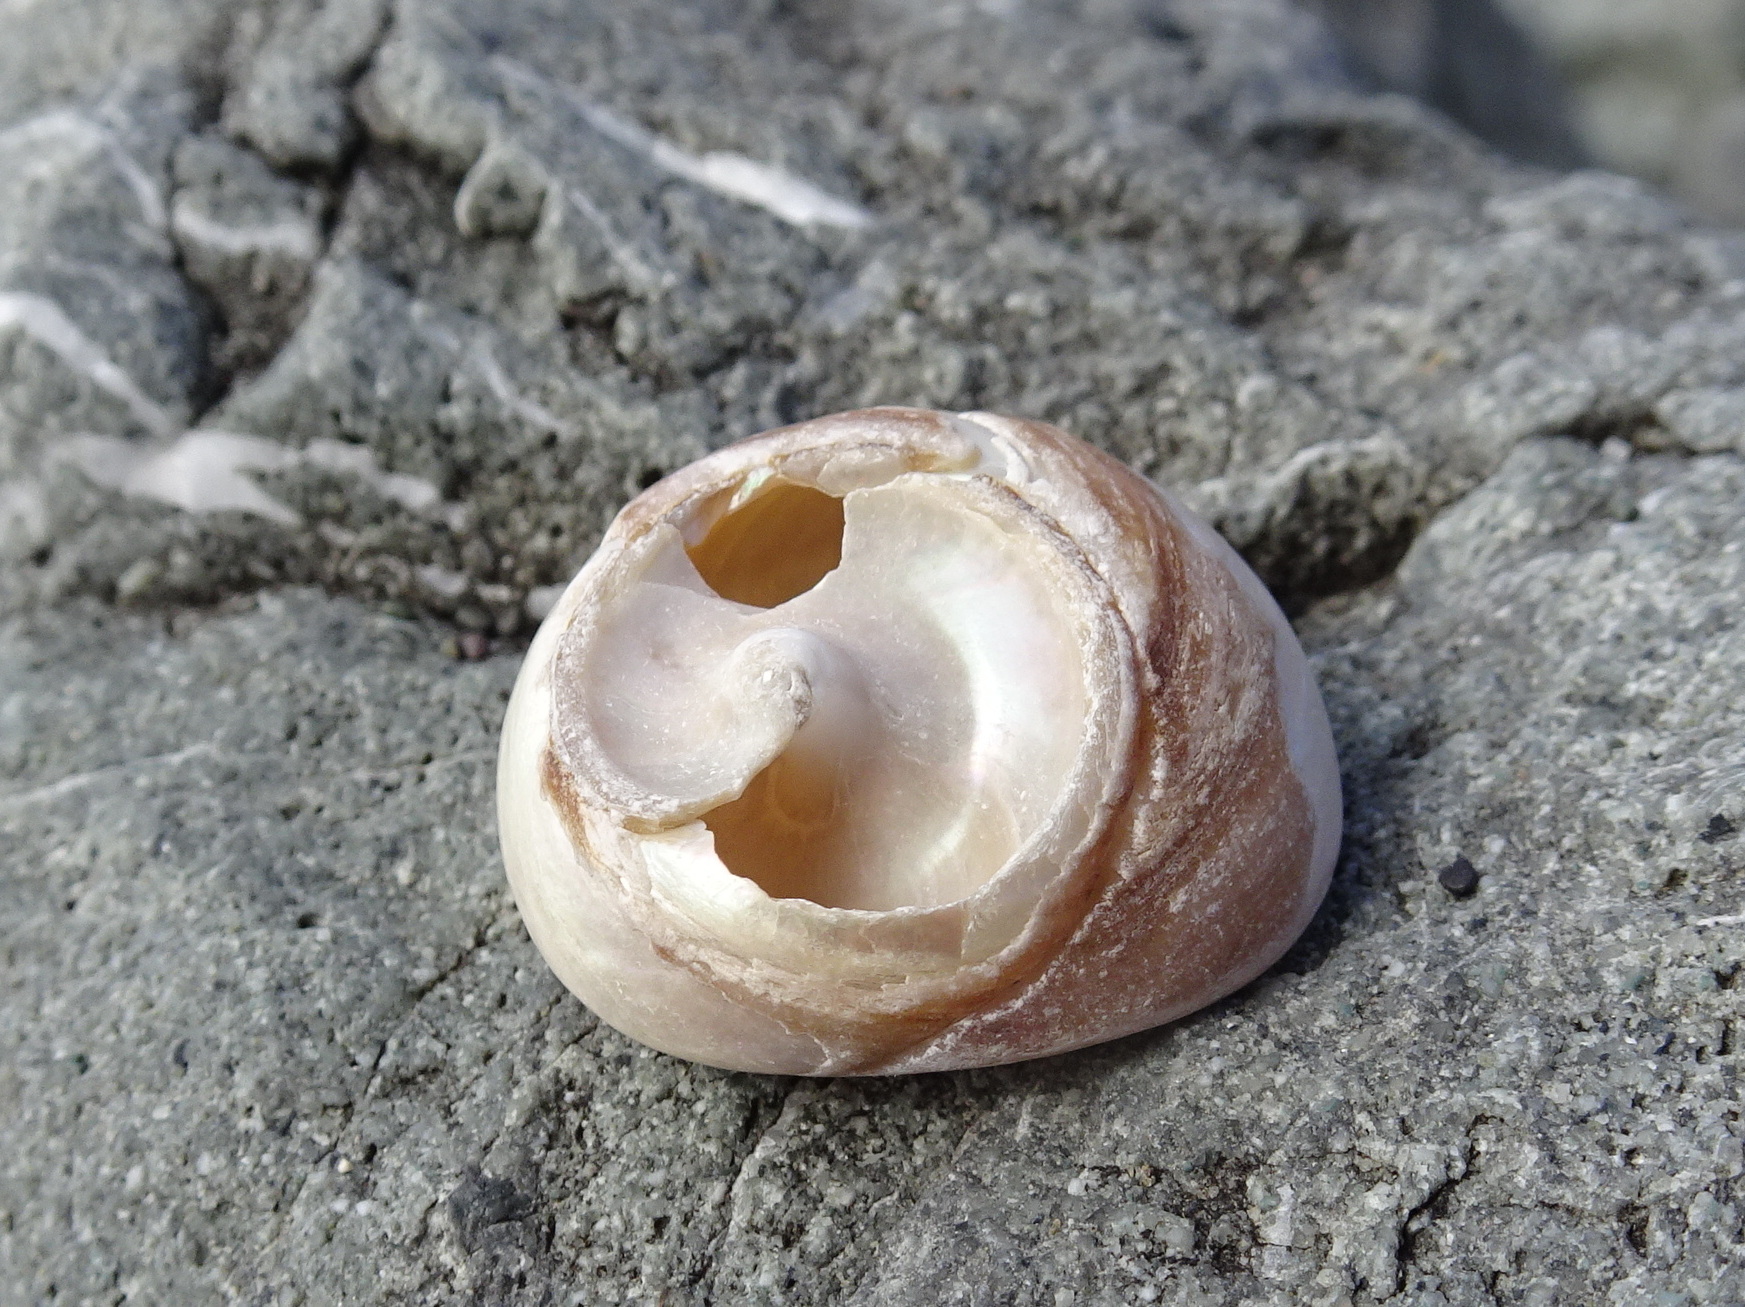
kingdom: Animalia
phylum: Mollusca
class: Gastropoda
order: Trochida
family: Tegulidae
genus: Tegula
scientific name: Tegula brunnea
